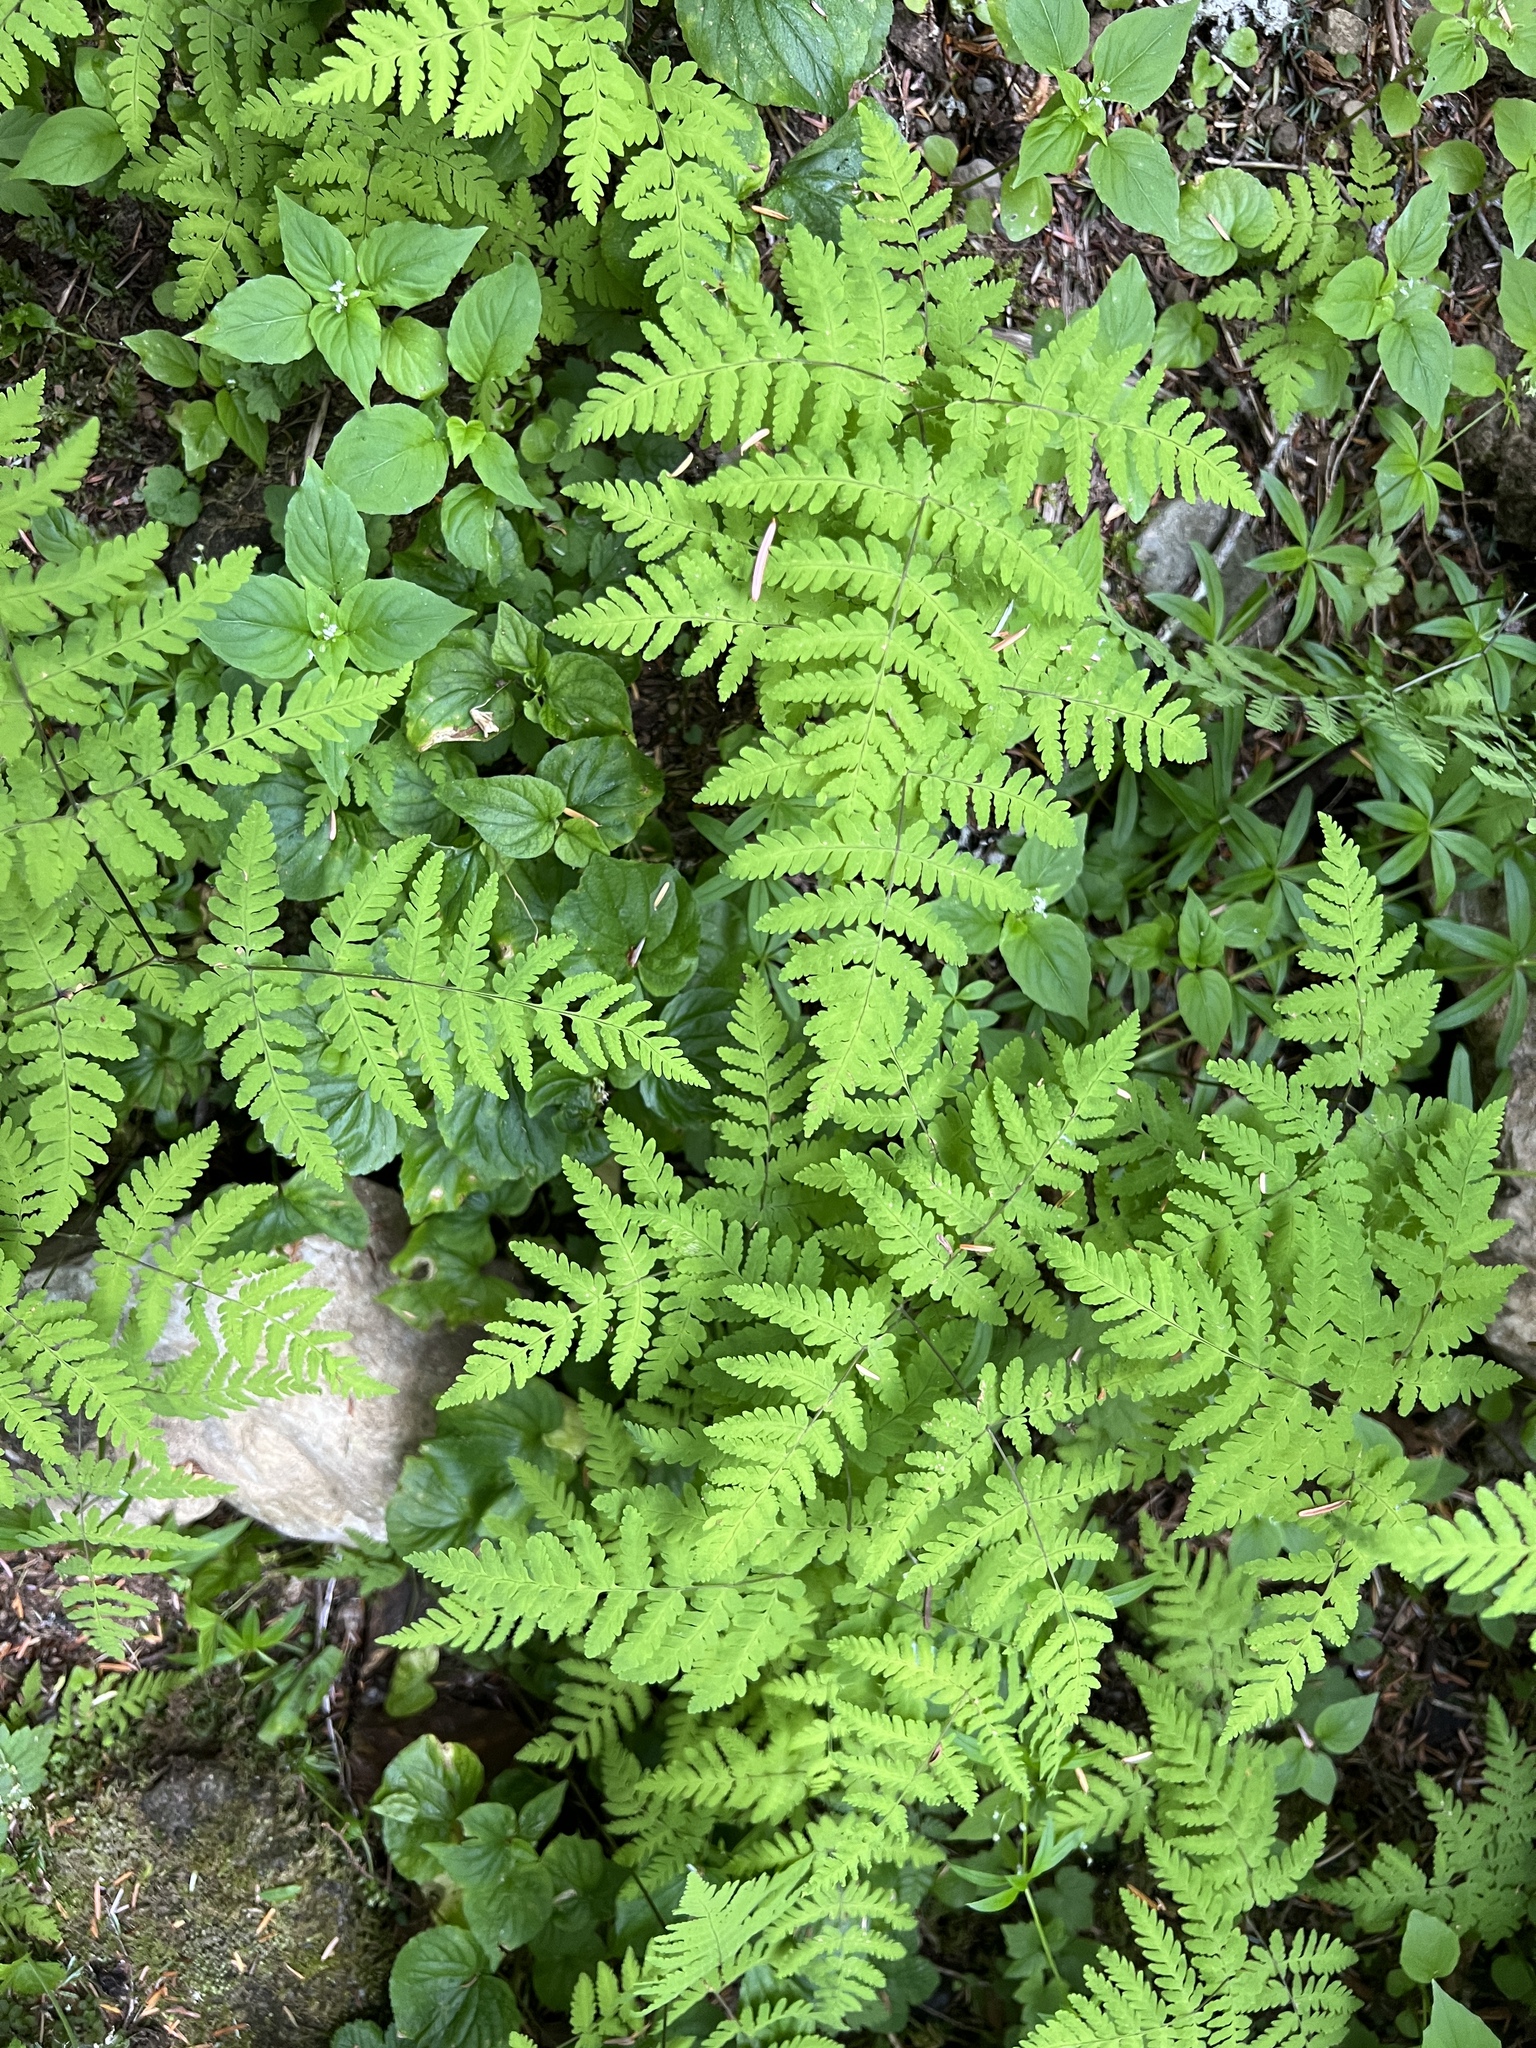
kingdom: Plantae
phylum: Tracheophyta
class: Polypodiopsida
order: Polypodiales
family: Cystopteridaceae
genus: Gymnocarpium
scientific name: Gymnocarpium disjunctum
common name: Western oak fern
